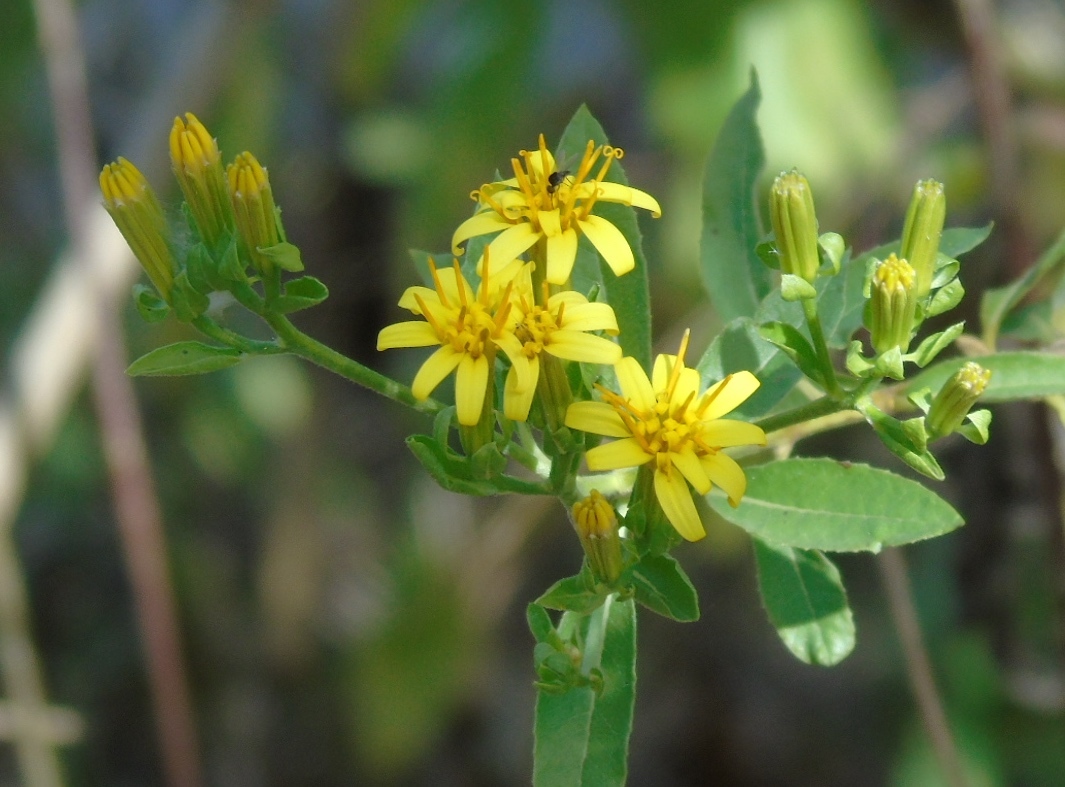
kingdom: Plantae
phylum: Tracheophyta
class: Magnoliopsida
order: Asterales
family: Asteraceae
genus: Trixis
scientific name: Trixis pterocaulis
